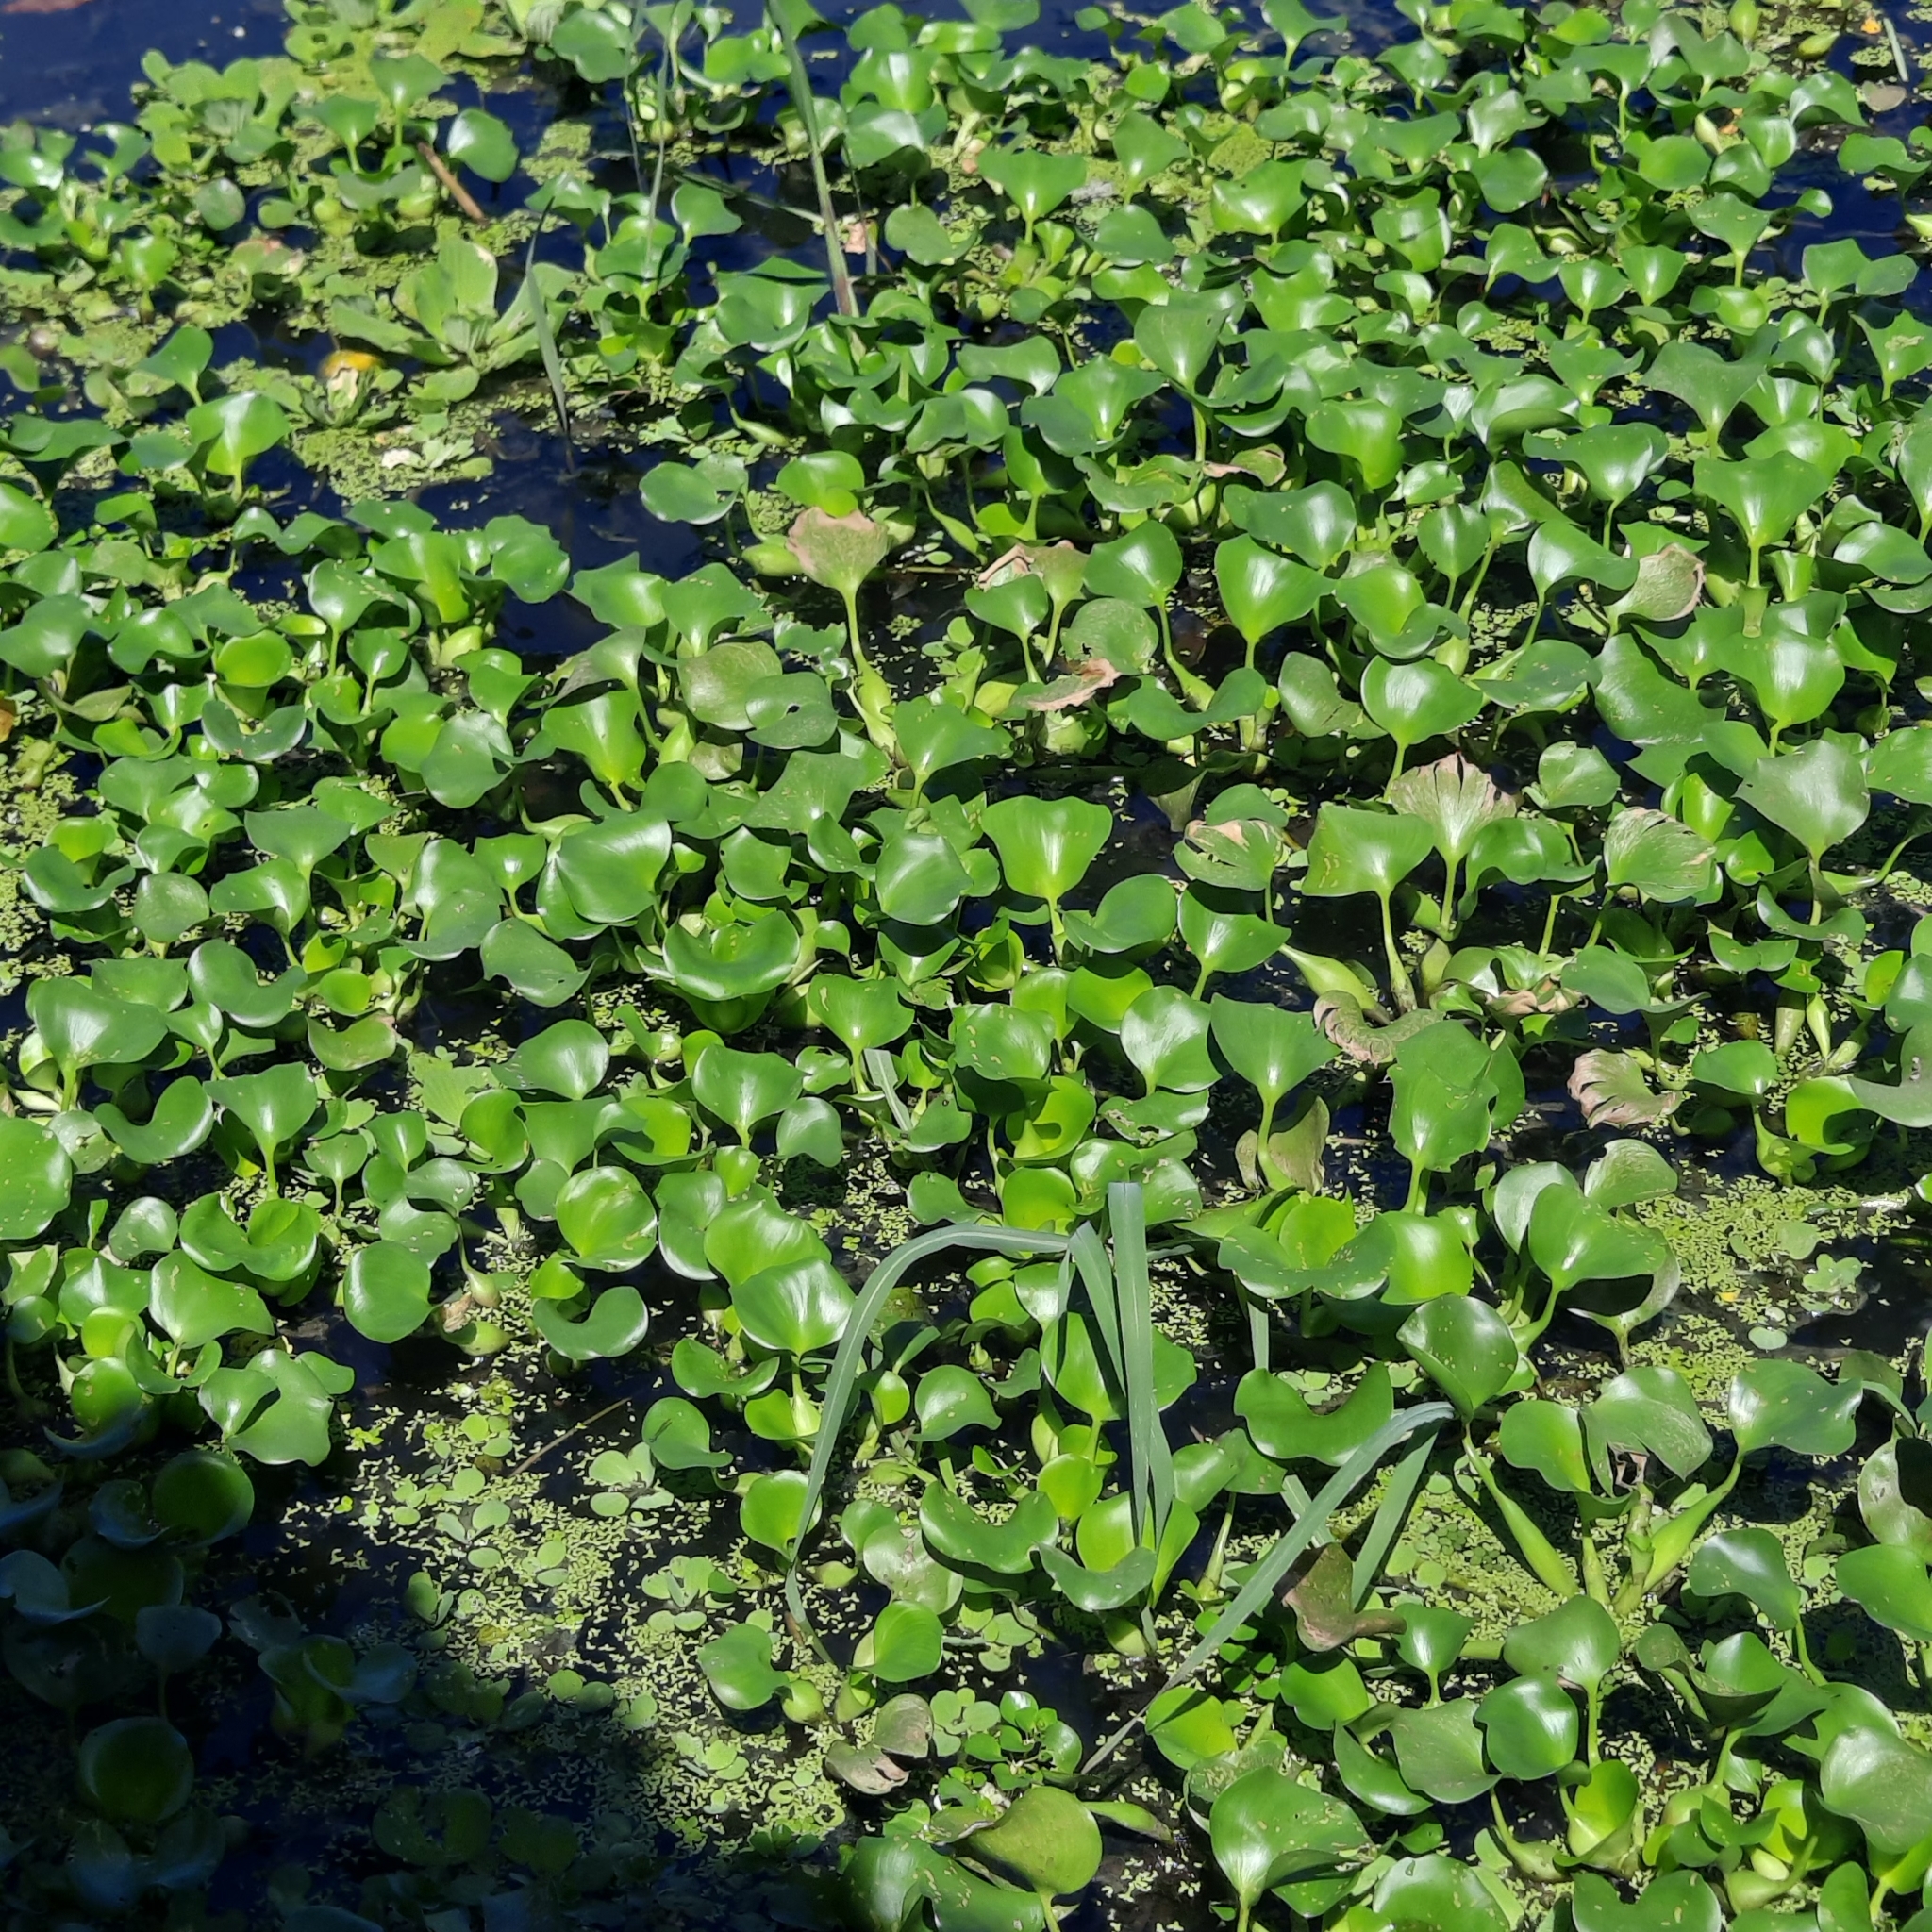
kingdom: Plantae
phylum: Tracheophyta
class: Liliopsida
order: Commelinales
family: Pontederiaceae
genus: Pontederia
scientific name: Pontederia crassipes
